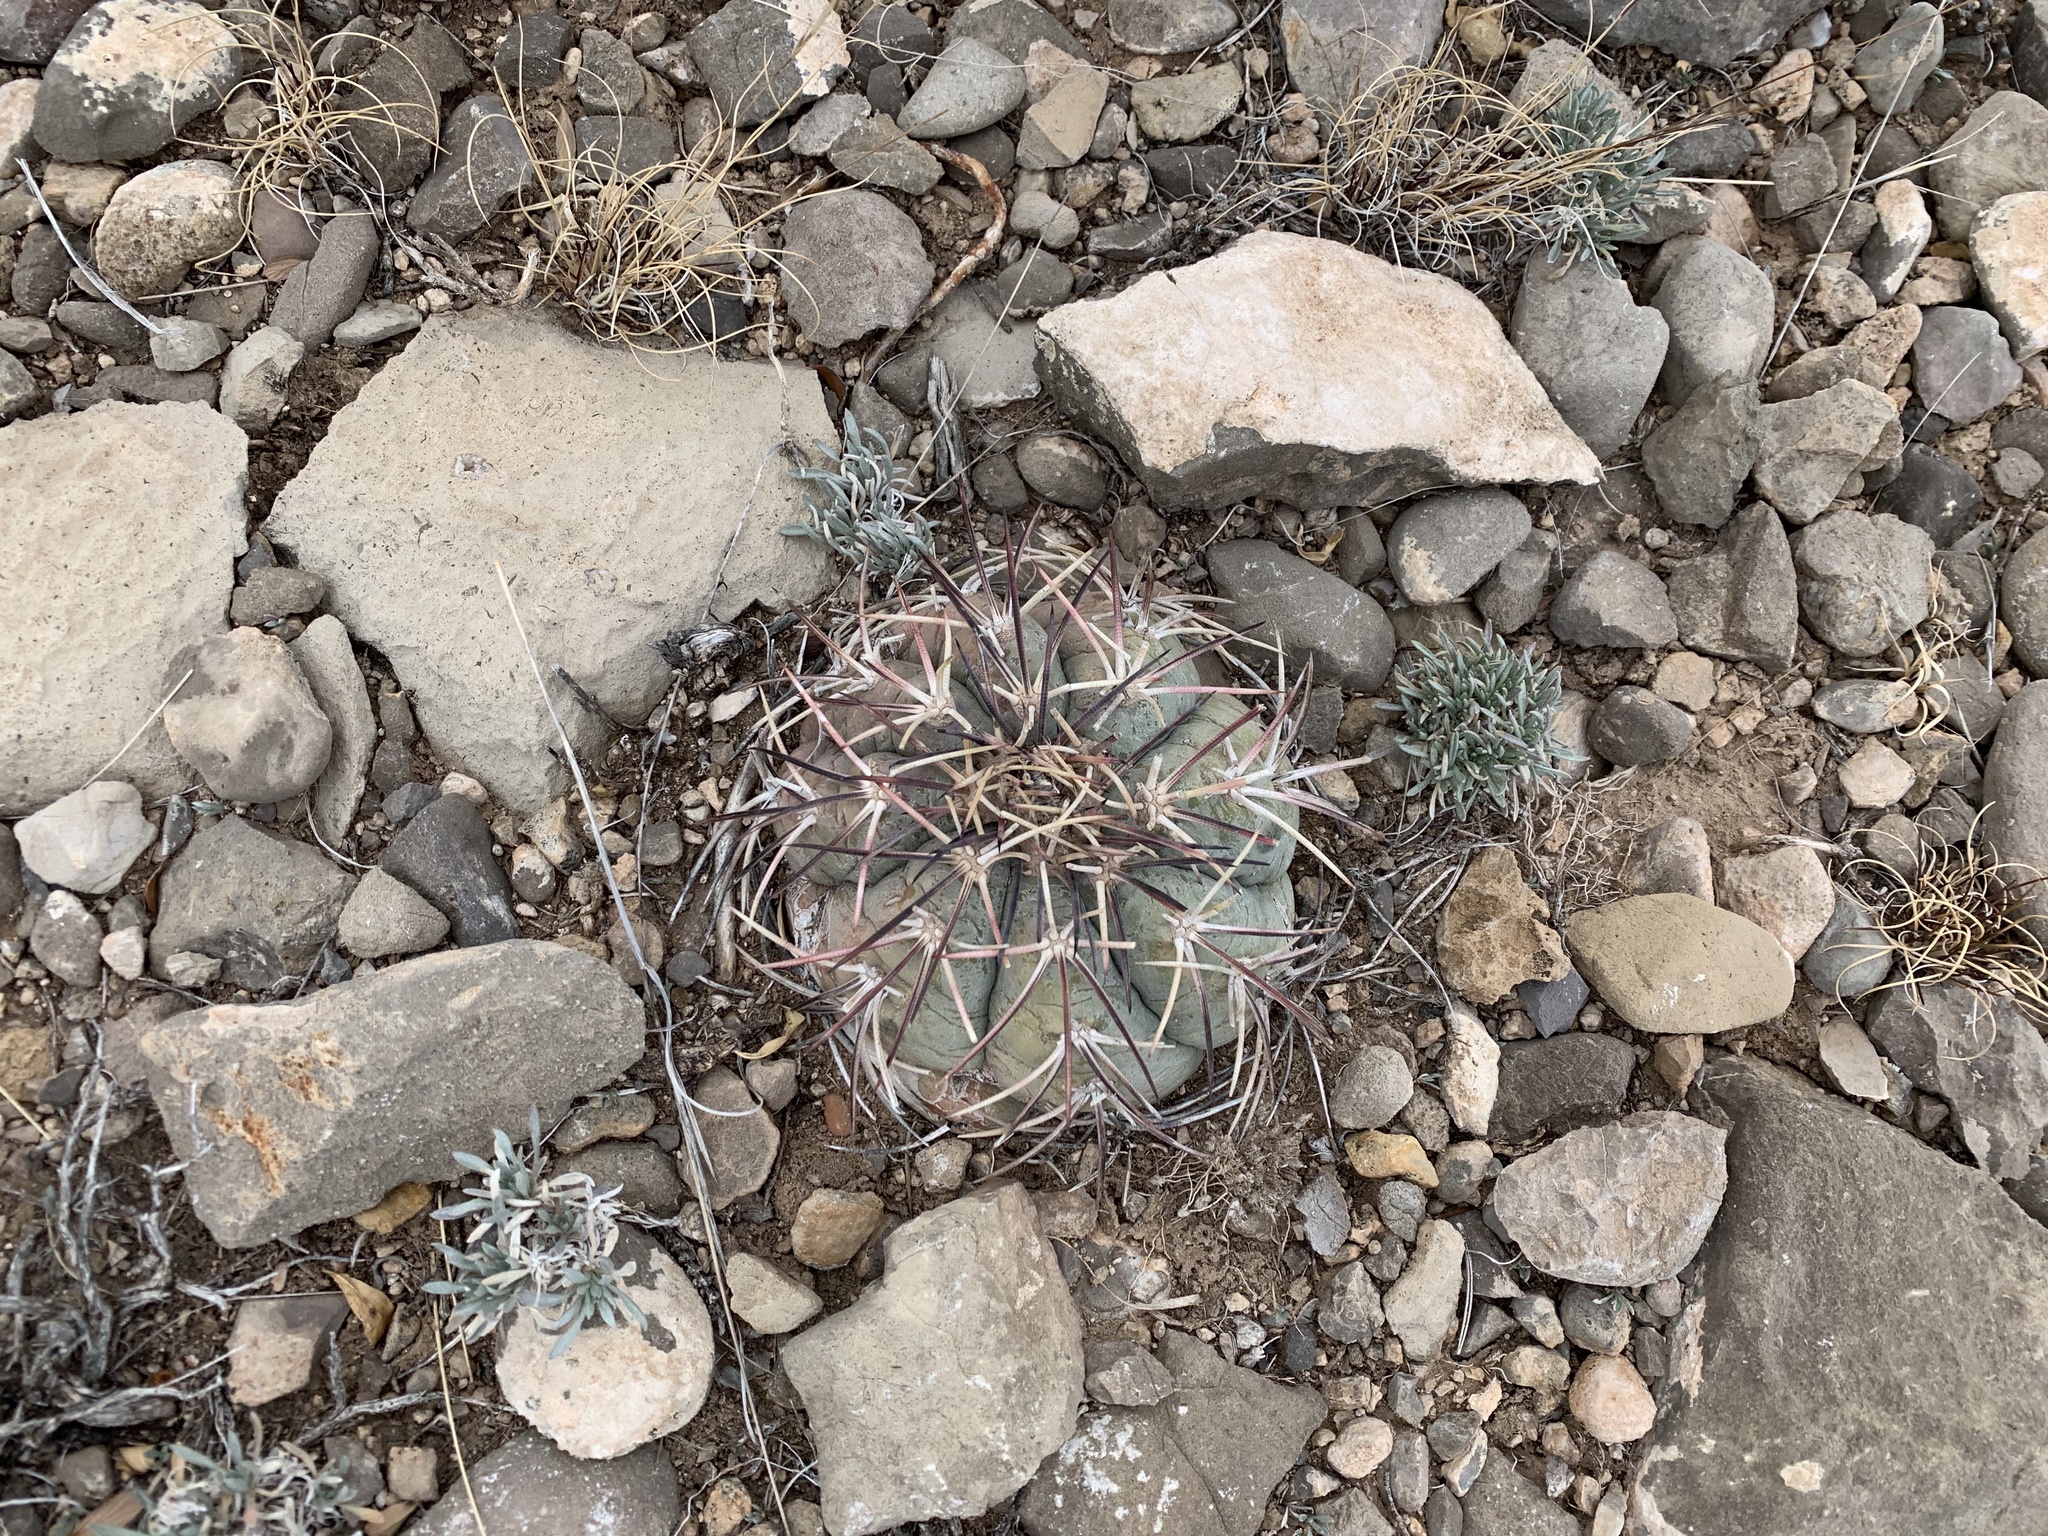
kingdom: Plantae
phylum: Tracheophyta
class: Magnoliopsida
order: Caryophyllales
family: Cactaceae
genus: Echinocactus
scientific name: Echinocactus horizonthalonius
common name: Devilshead
